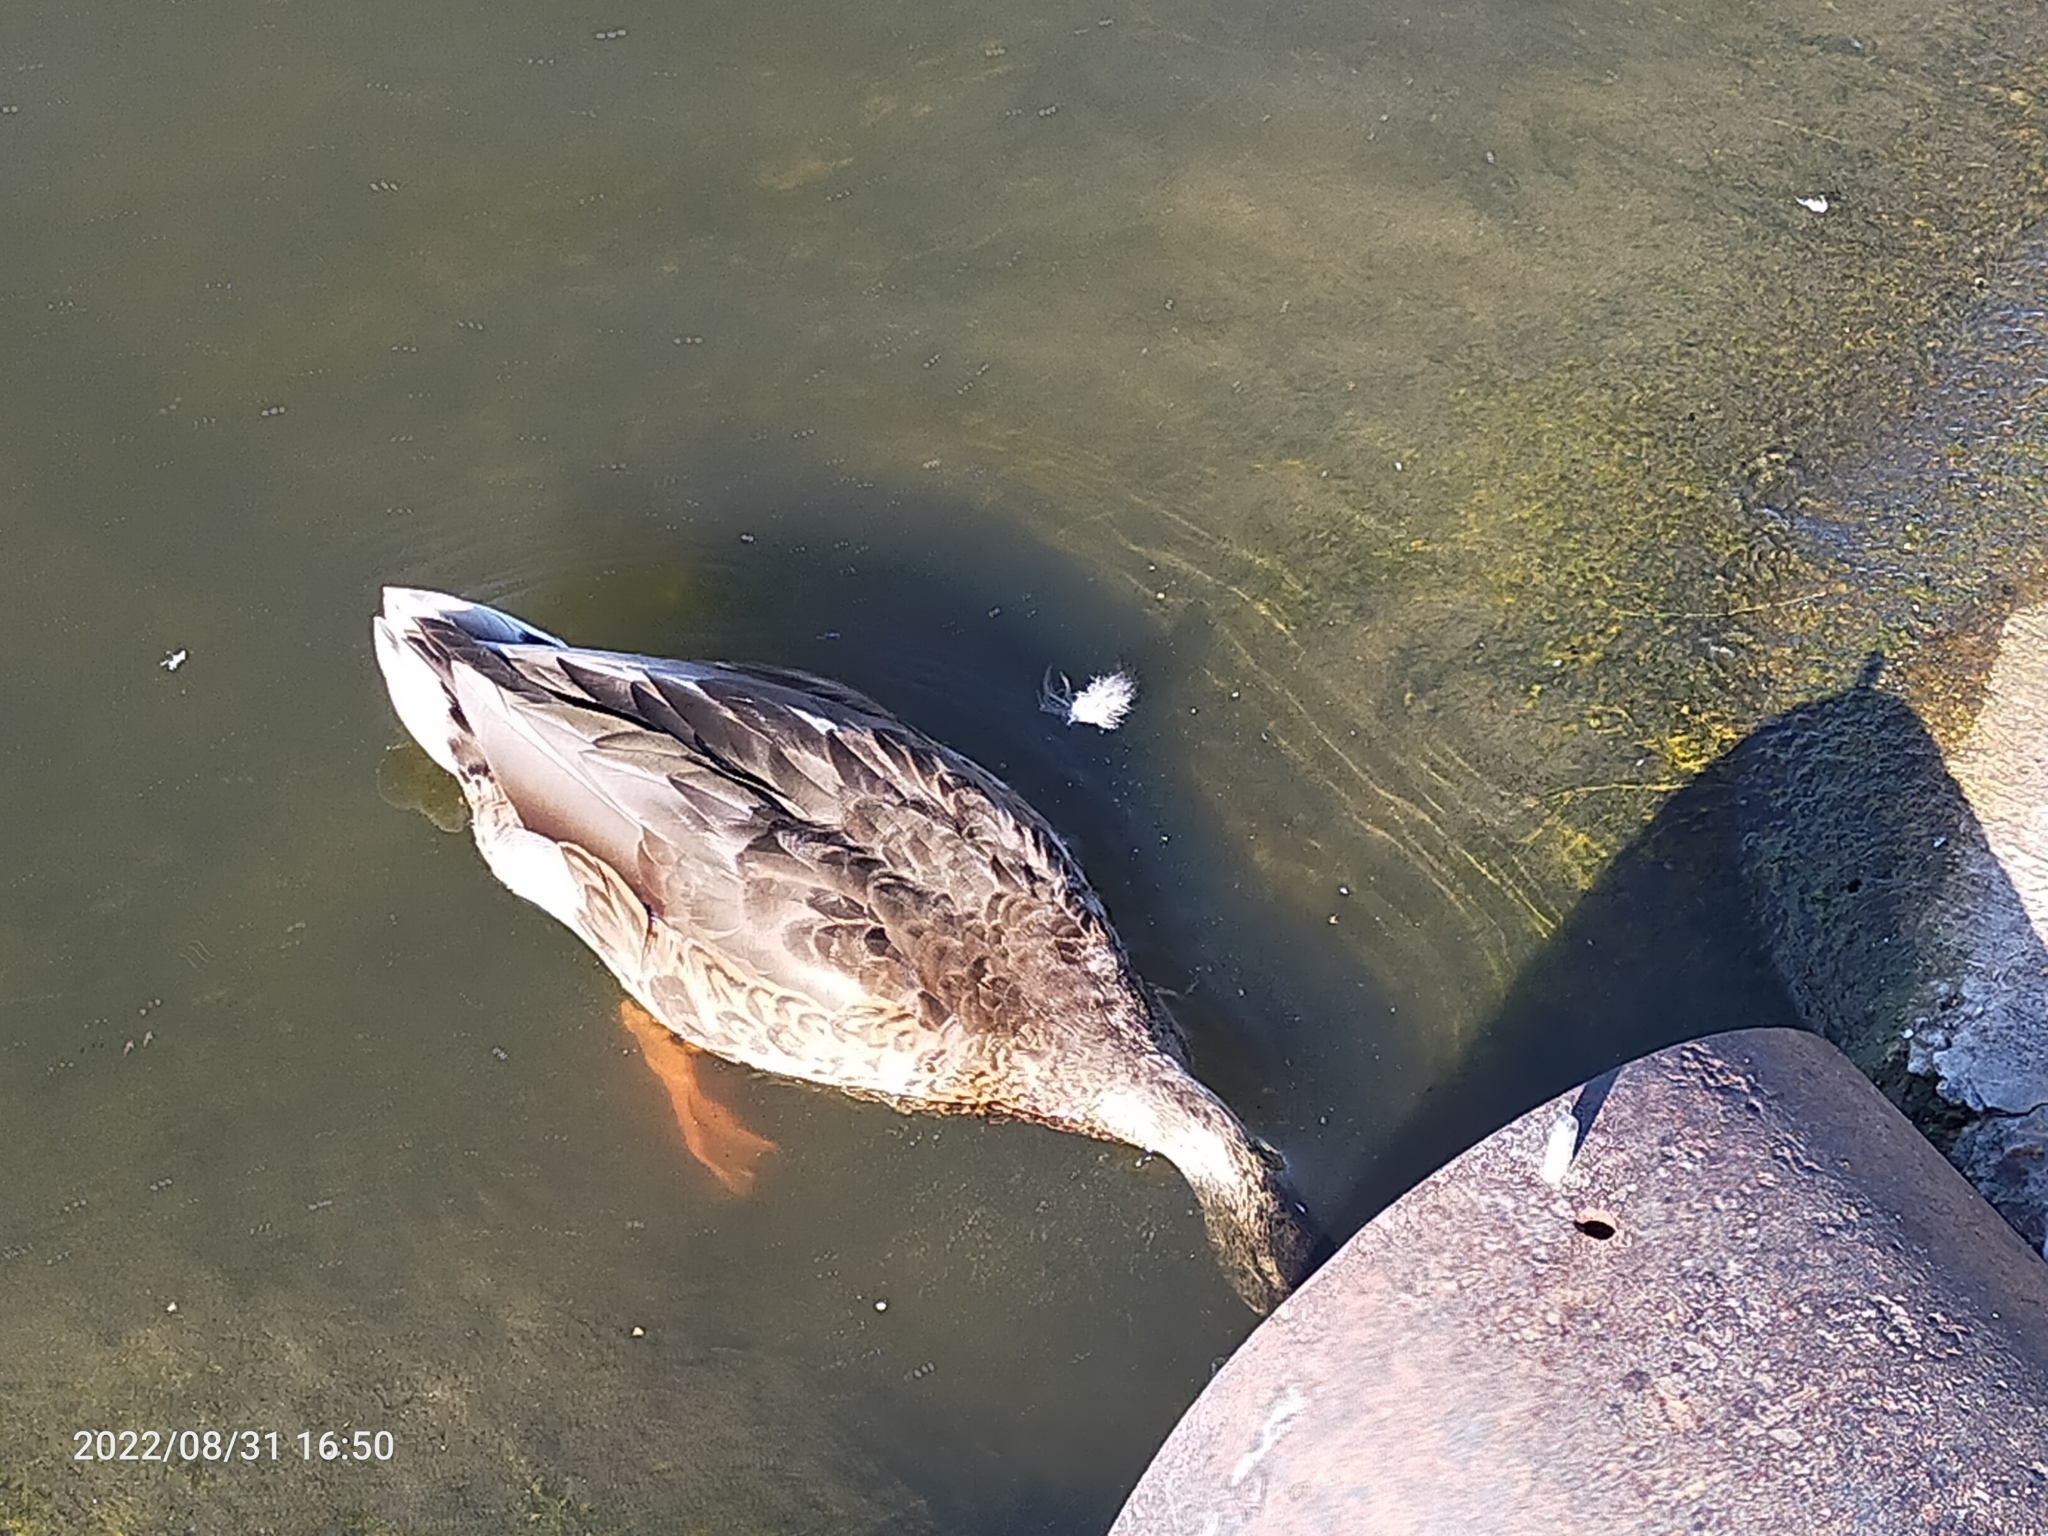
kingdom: Animalia
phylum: Chordata
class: Aves
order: Anseriformes
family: Anatidae
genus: Anas
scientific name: Anas platyrhynchos
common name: Mallard
